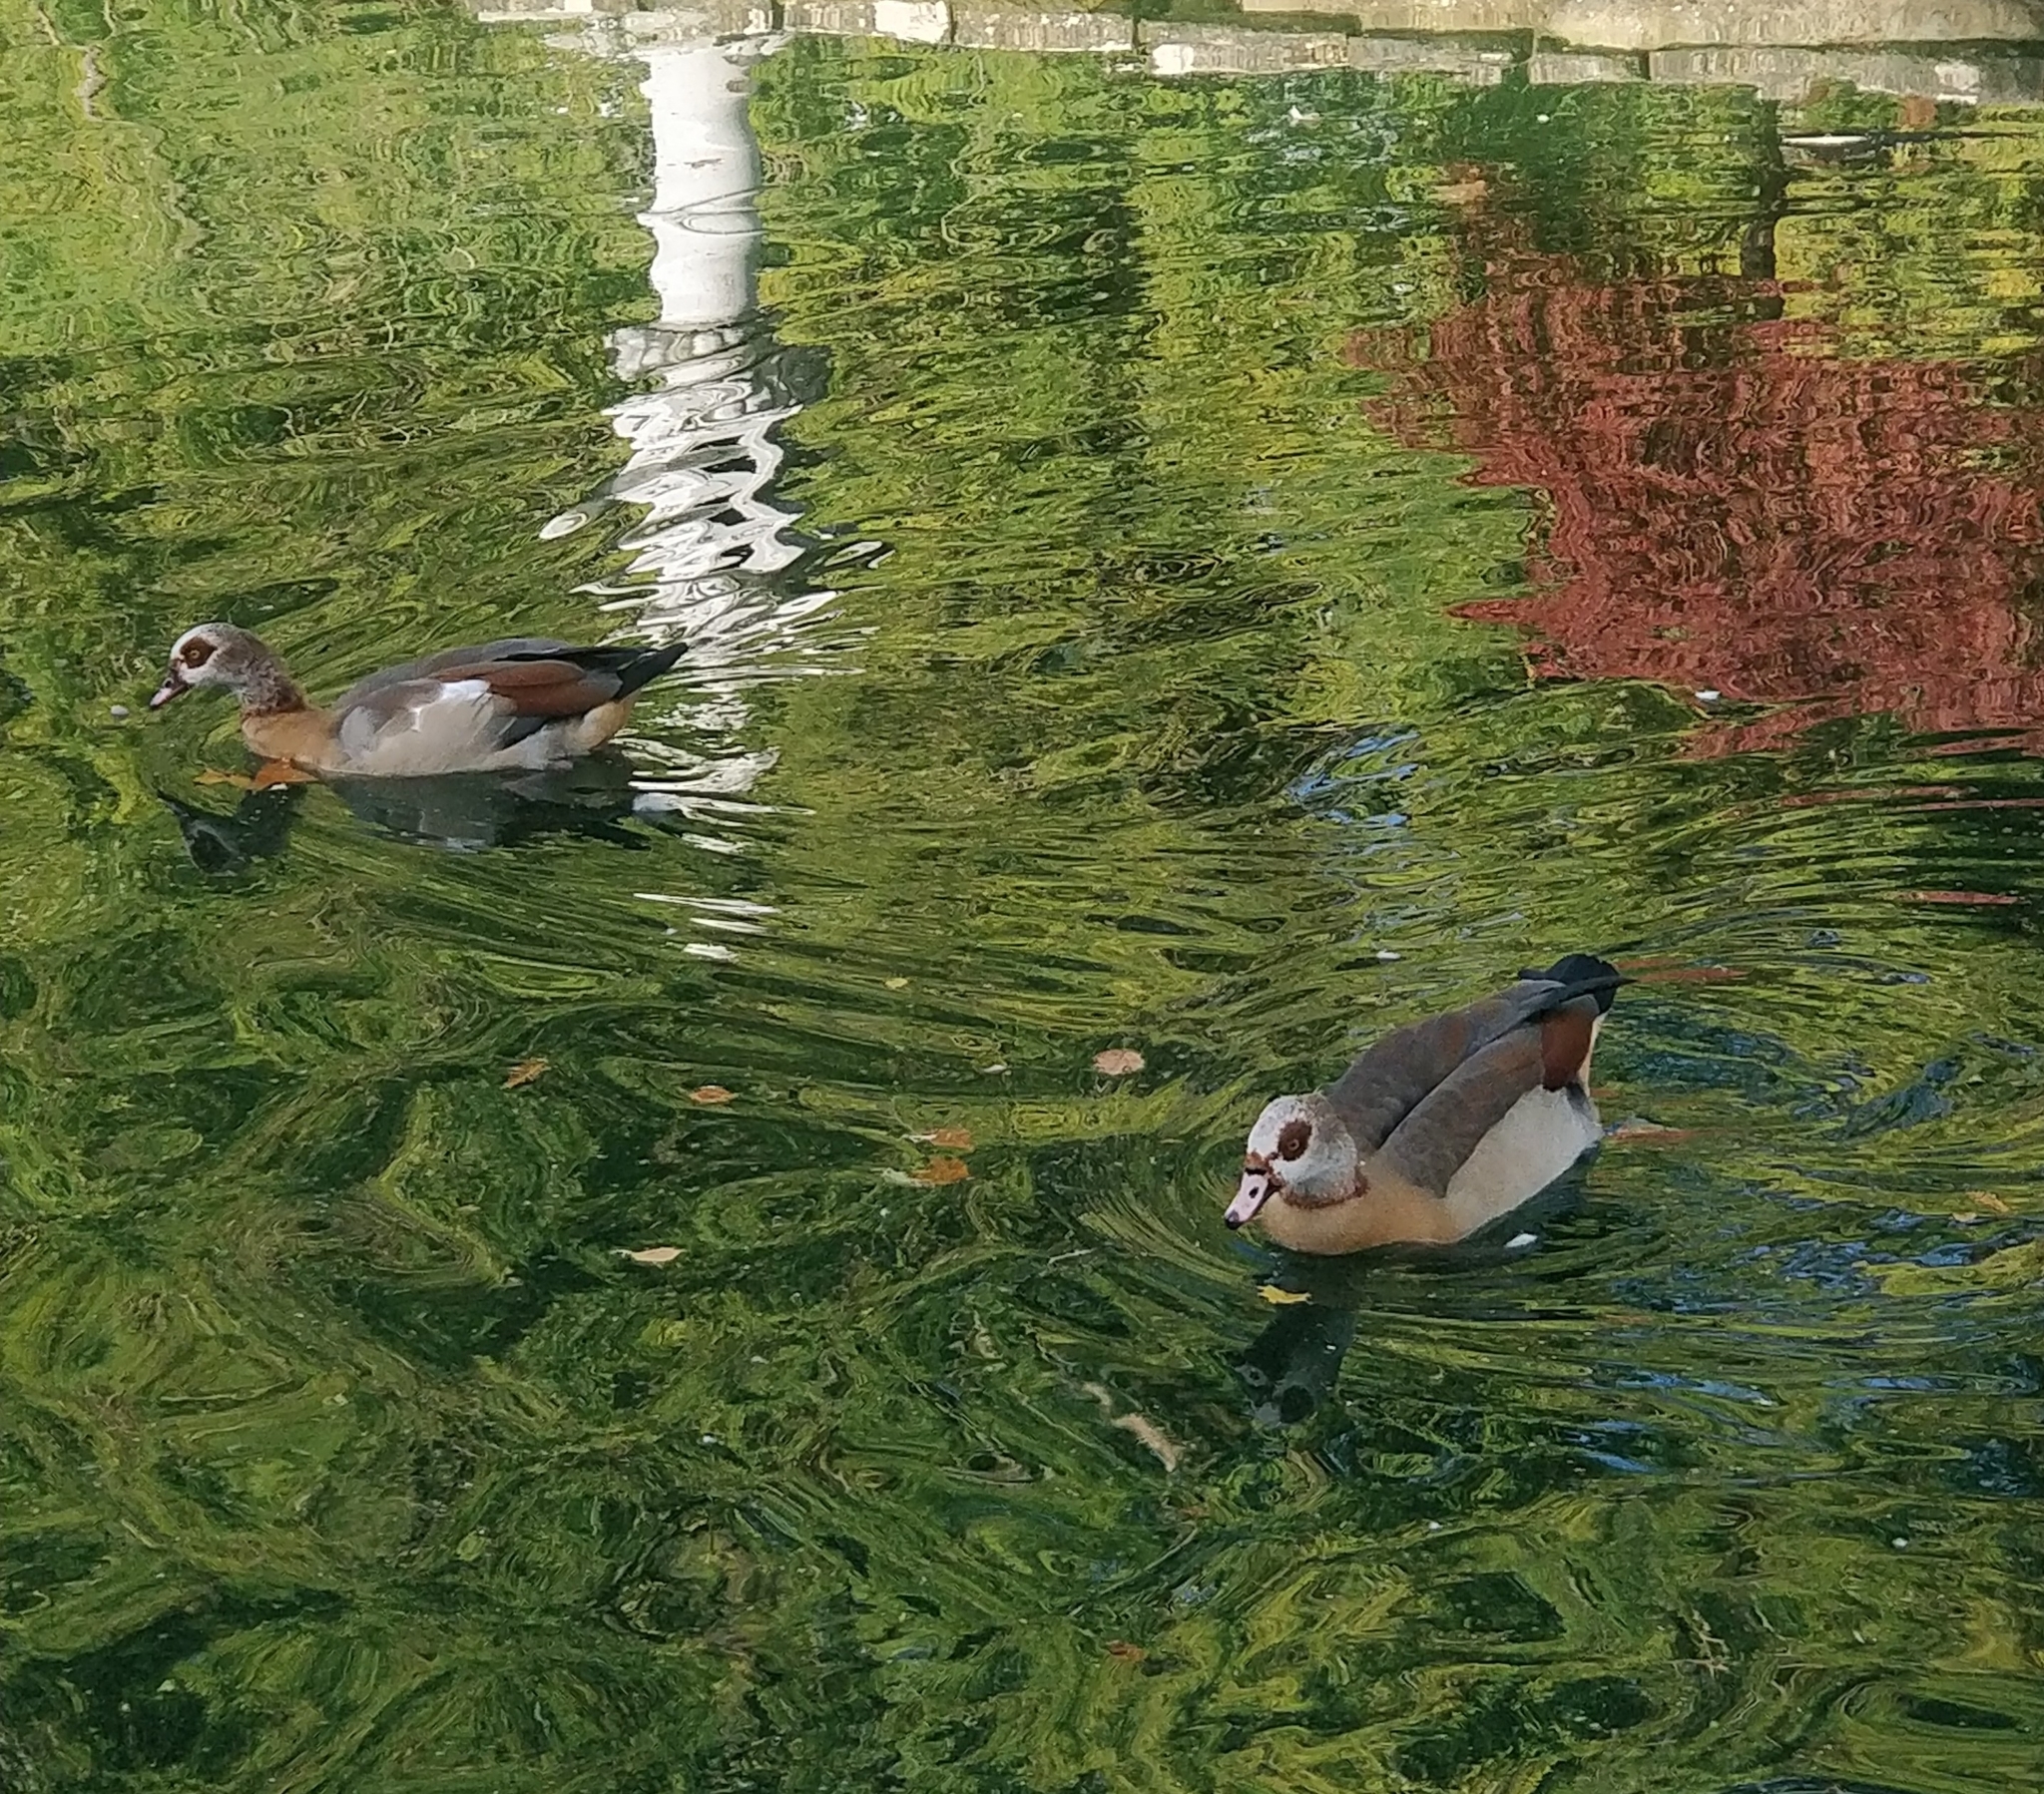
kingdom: Animalia
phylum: Chordata
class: Aves
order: Anseriformes
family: Anatidae
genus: Alopochen
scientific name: Alopochen aegyptiaca
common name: Egyptian goose
